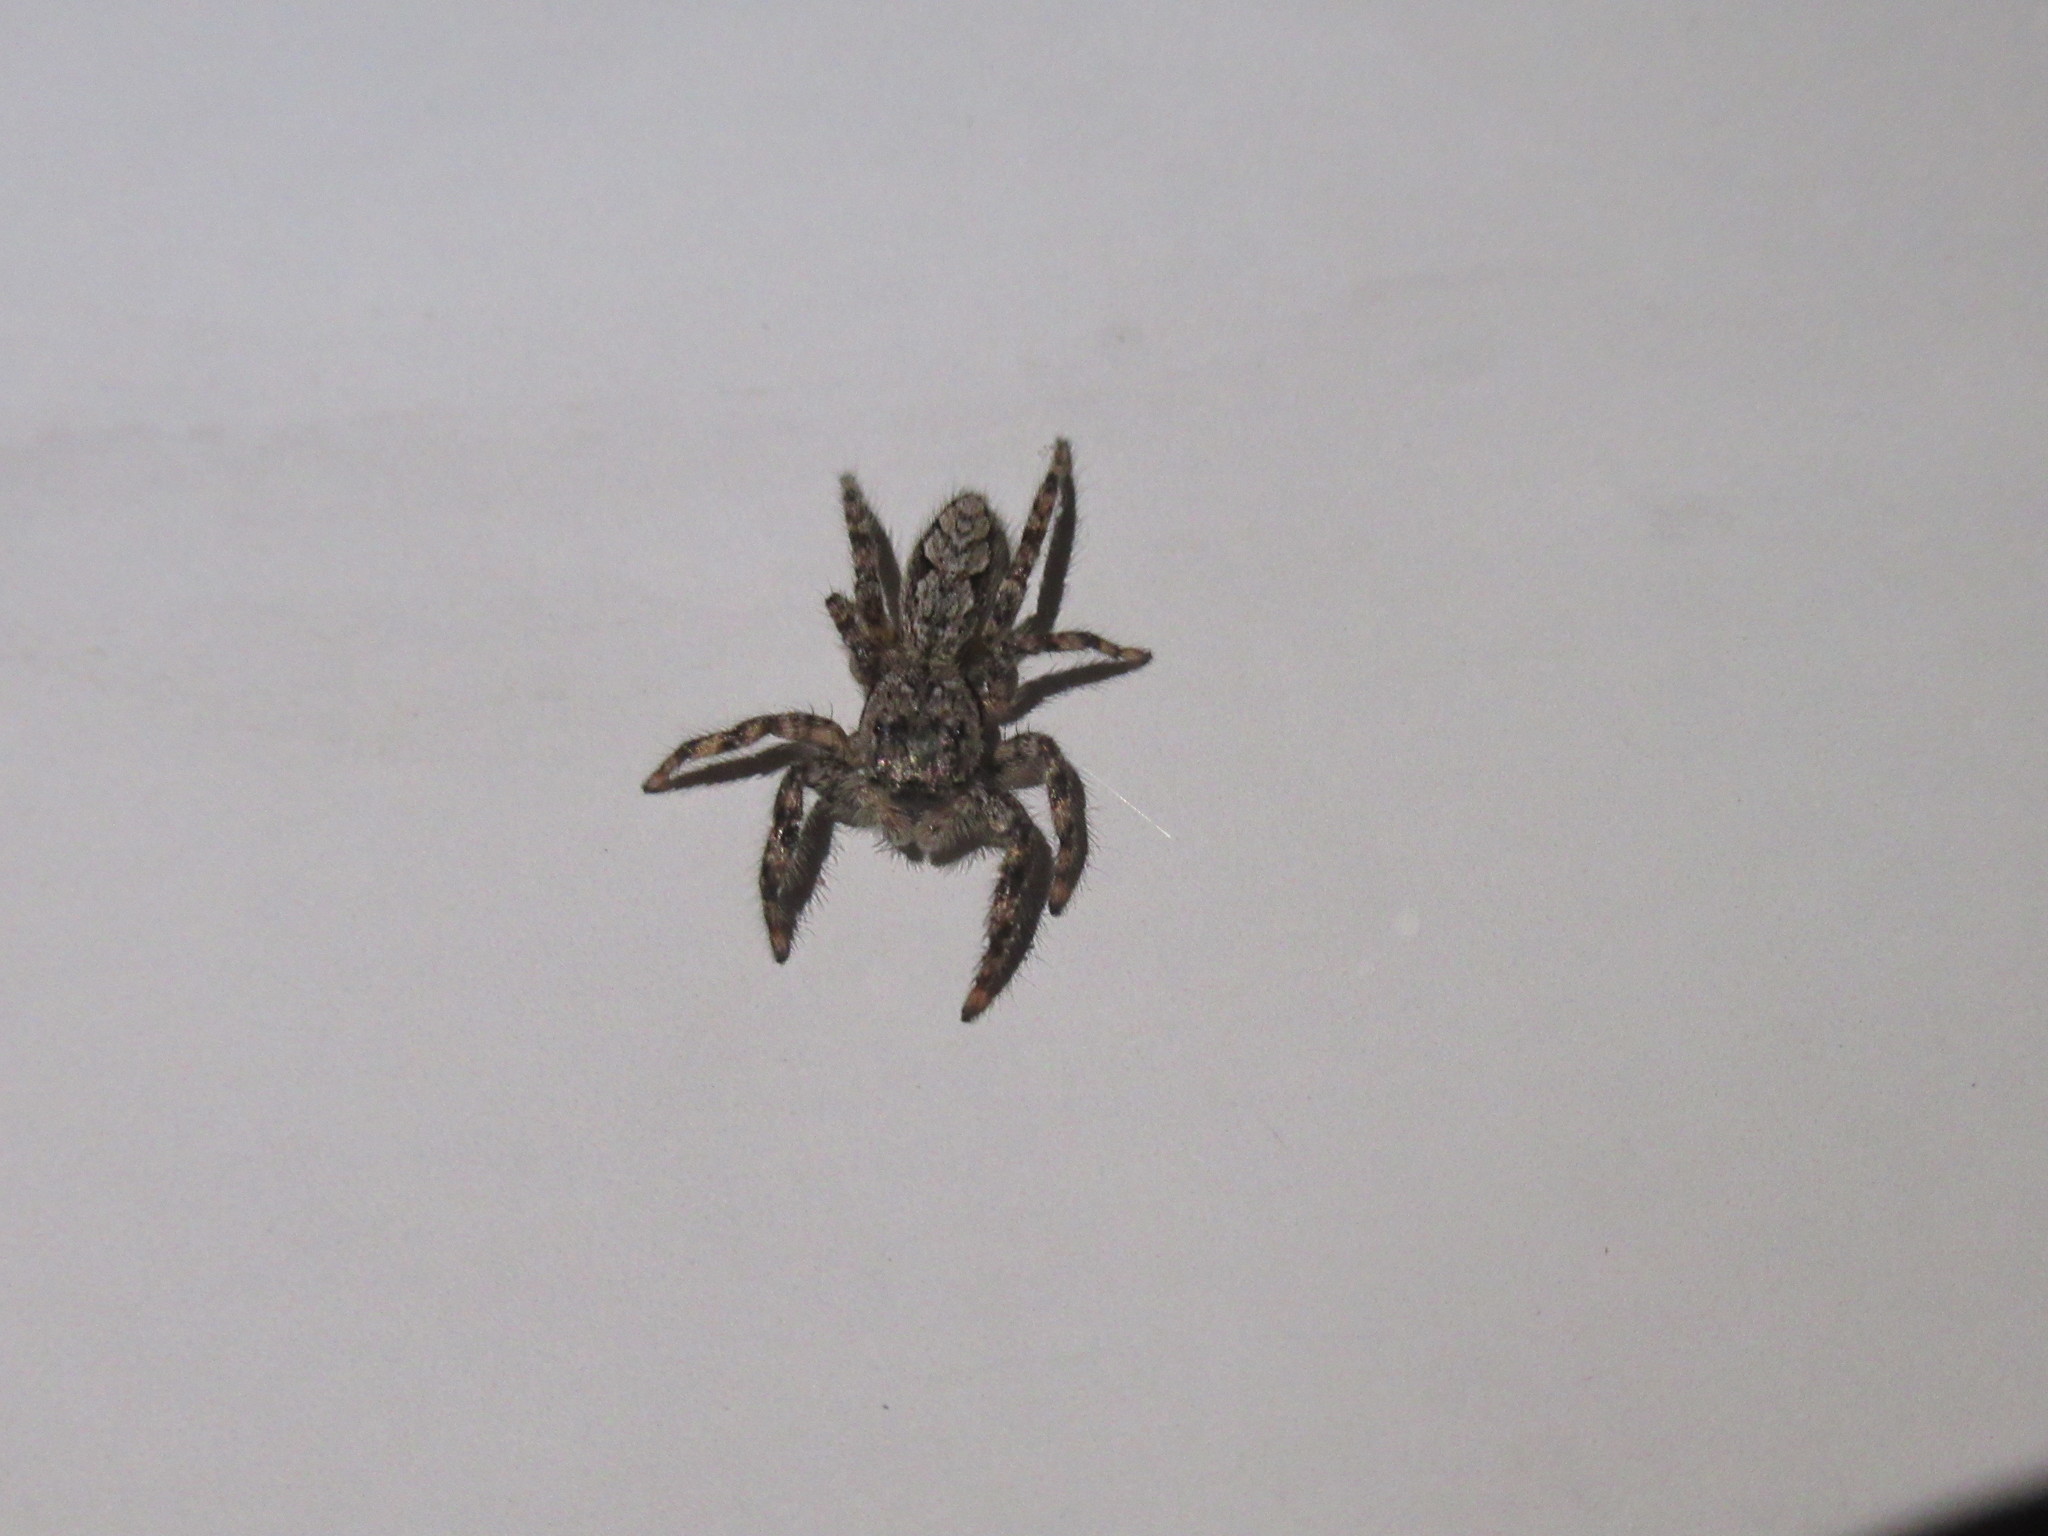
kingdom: Animalia
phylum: Arthropoda
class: Arachnida
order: Araneae
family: Salticidae
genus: Platycryptus
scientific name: Platycryptus undatus
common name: Tan jumping spider
